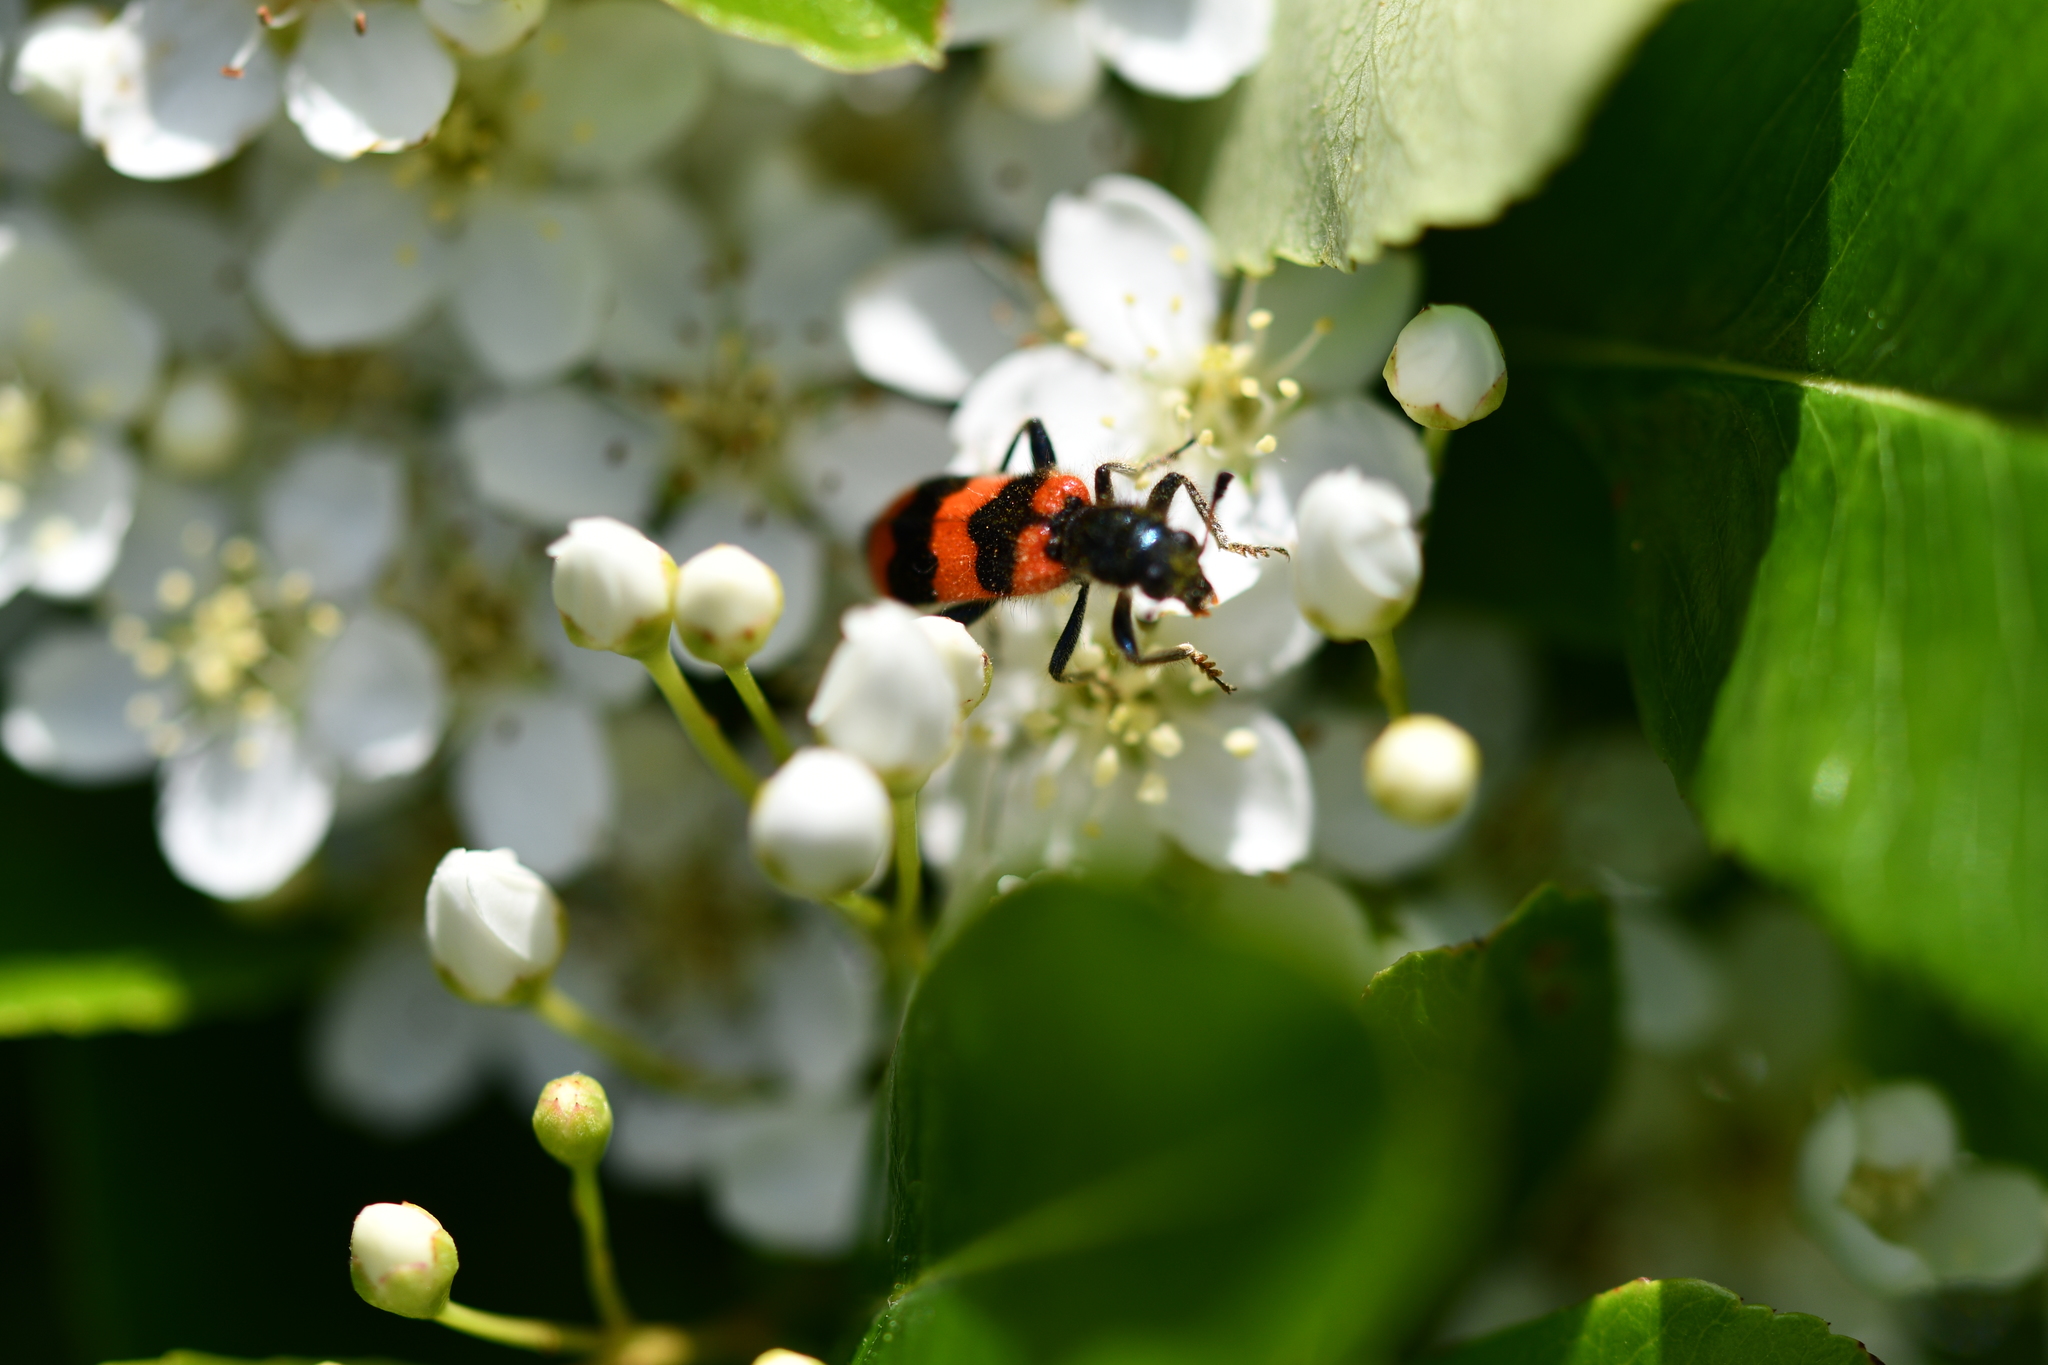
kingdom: Animalia
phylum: Arthropoda
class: Insecta
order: Coleoptera
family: Cleridae
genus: Trichodes
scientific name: Trichodes apiarius
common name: Bee-eating beetle
